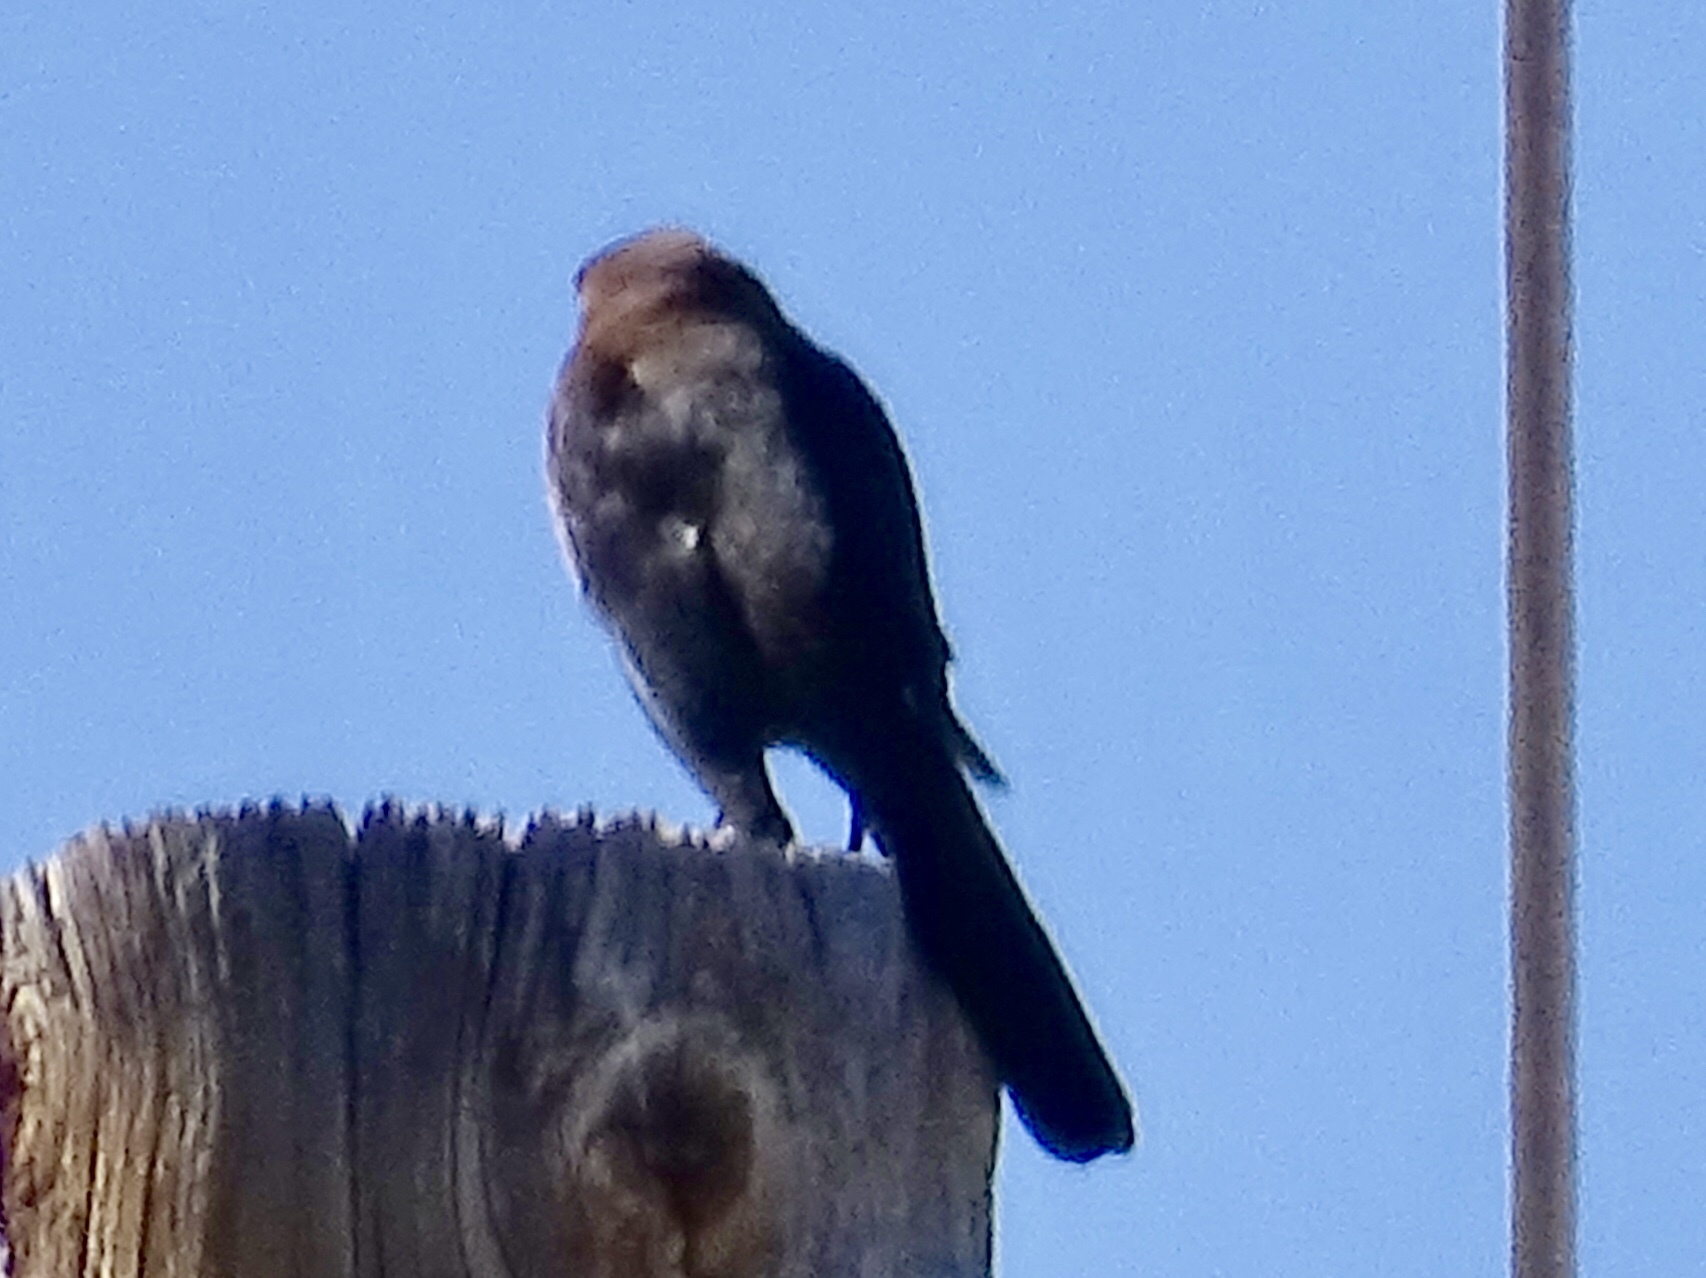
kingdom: Animalia
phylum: Chordata
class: Aves
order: Passeriformes
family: Icteridae
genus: Quiscalus
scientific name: Quiscalus mexicanus
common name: Great-tailed grackle
